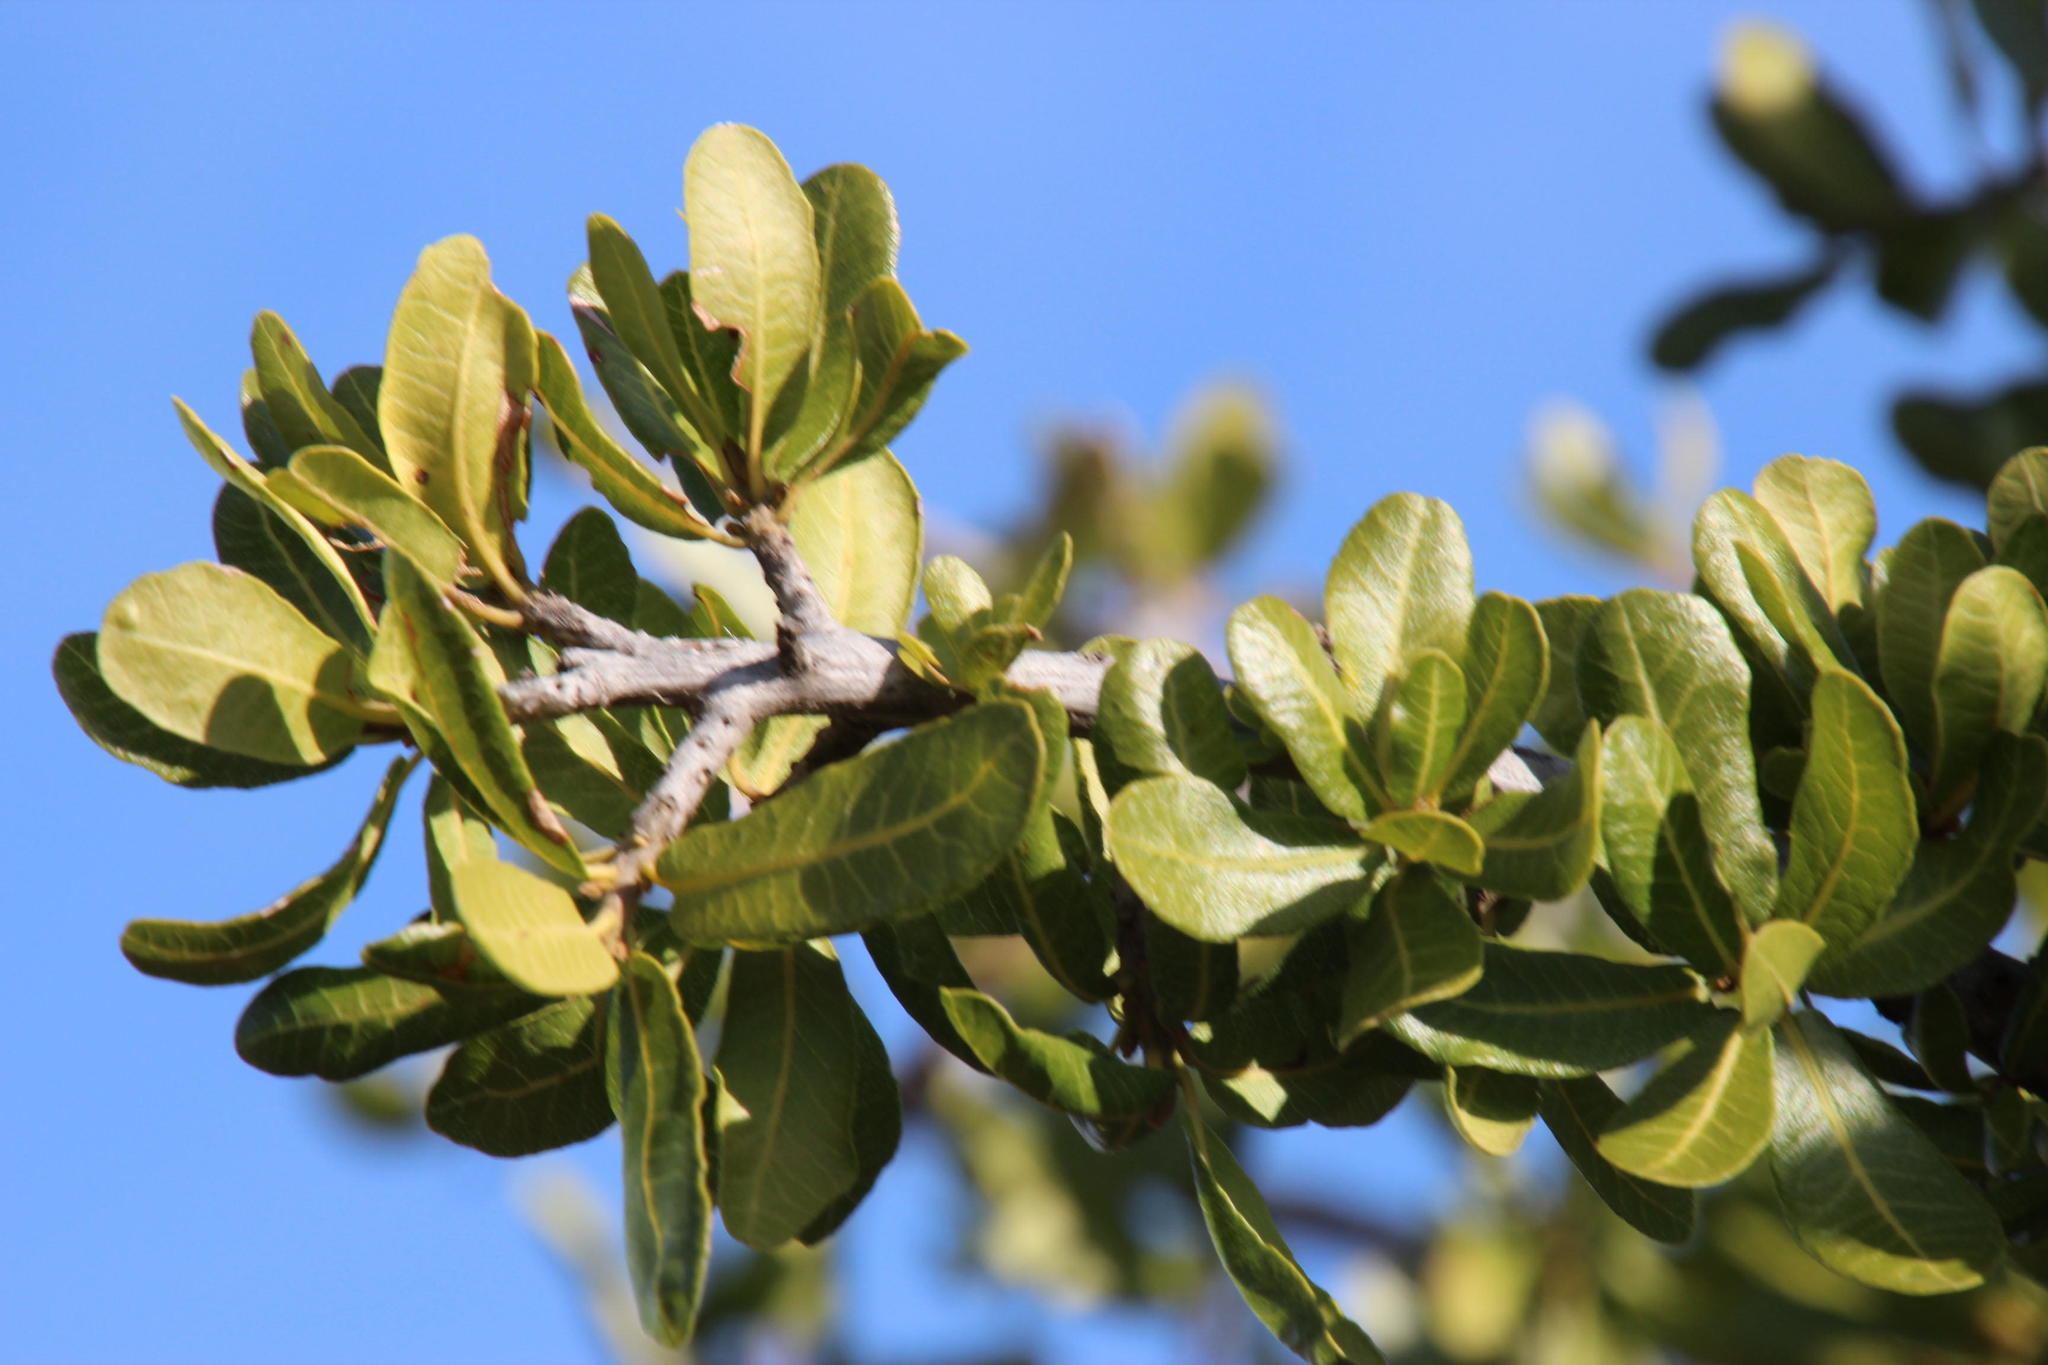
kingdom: Plantae
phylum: Tracheophyta
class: Magnoliopsida
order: Sapindales
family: Sapindaceae
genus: Pappea
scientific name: Pappea capensis
